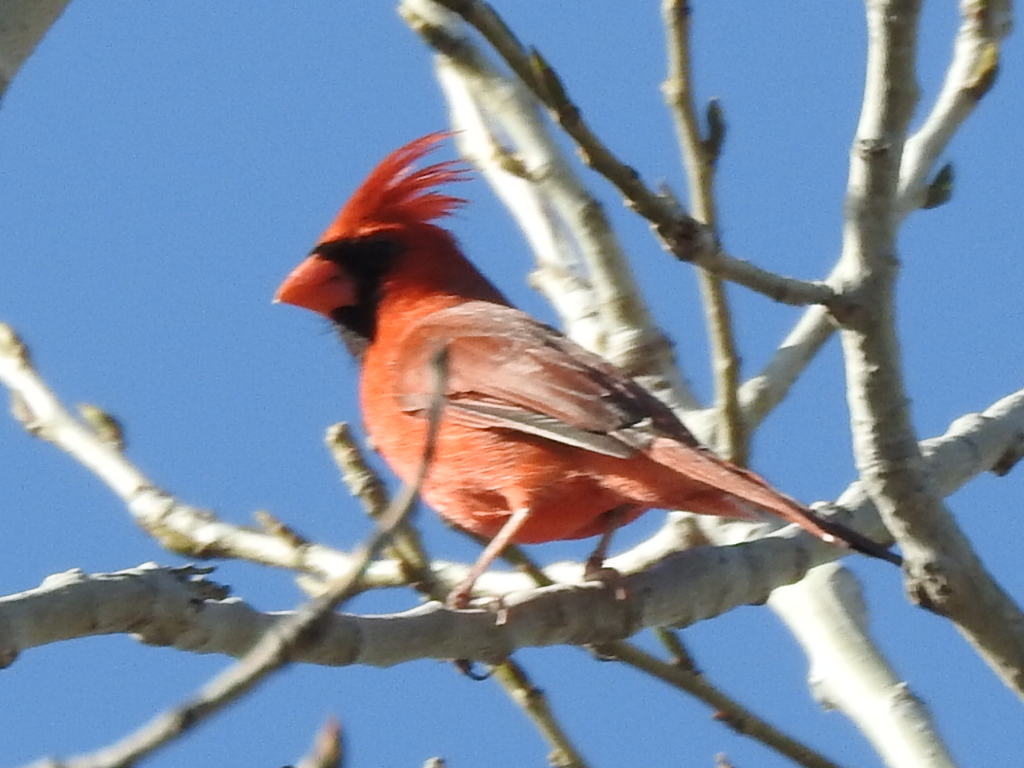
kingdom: Animalia
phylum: Chordata
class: Aves
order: Passeriformes
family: Cardinalidae
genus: Cardinalis
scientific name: Cardinalis cardinalis
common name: Northern cardinal
